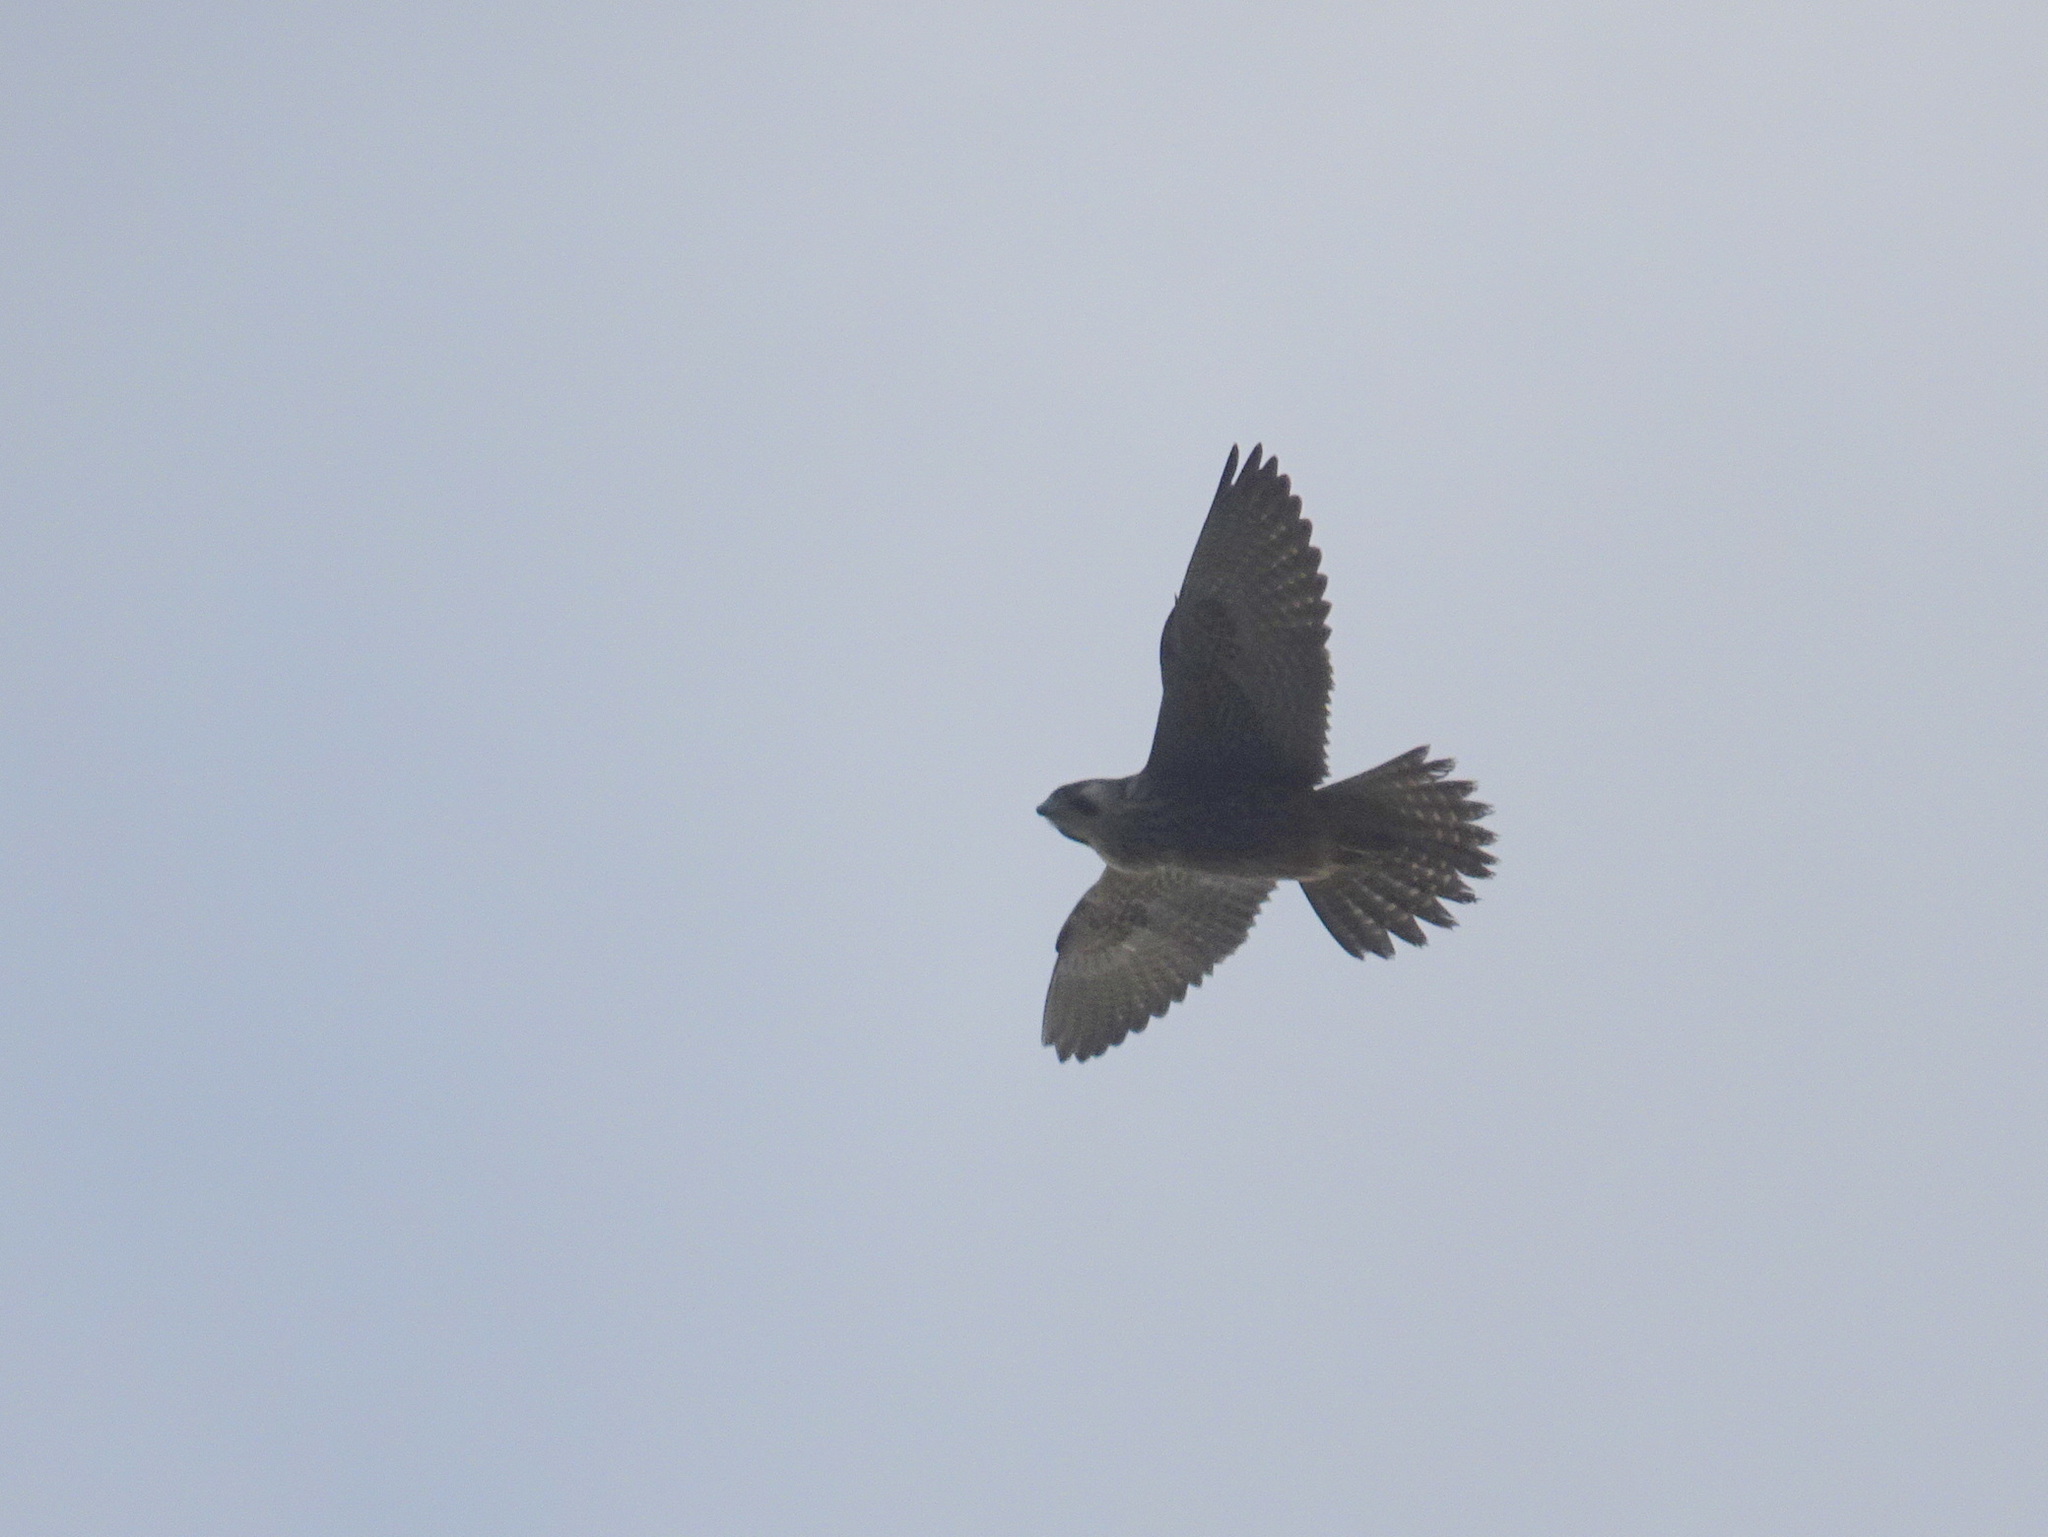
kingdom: Animalia
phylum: Chordata
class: Aves
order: Falconiformes
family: Falconidae
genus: Falco
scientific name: Falco peregrinus
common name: Peregrine falcon
